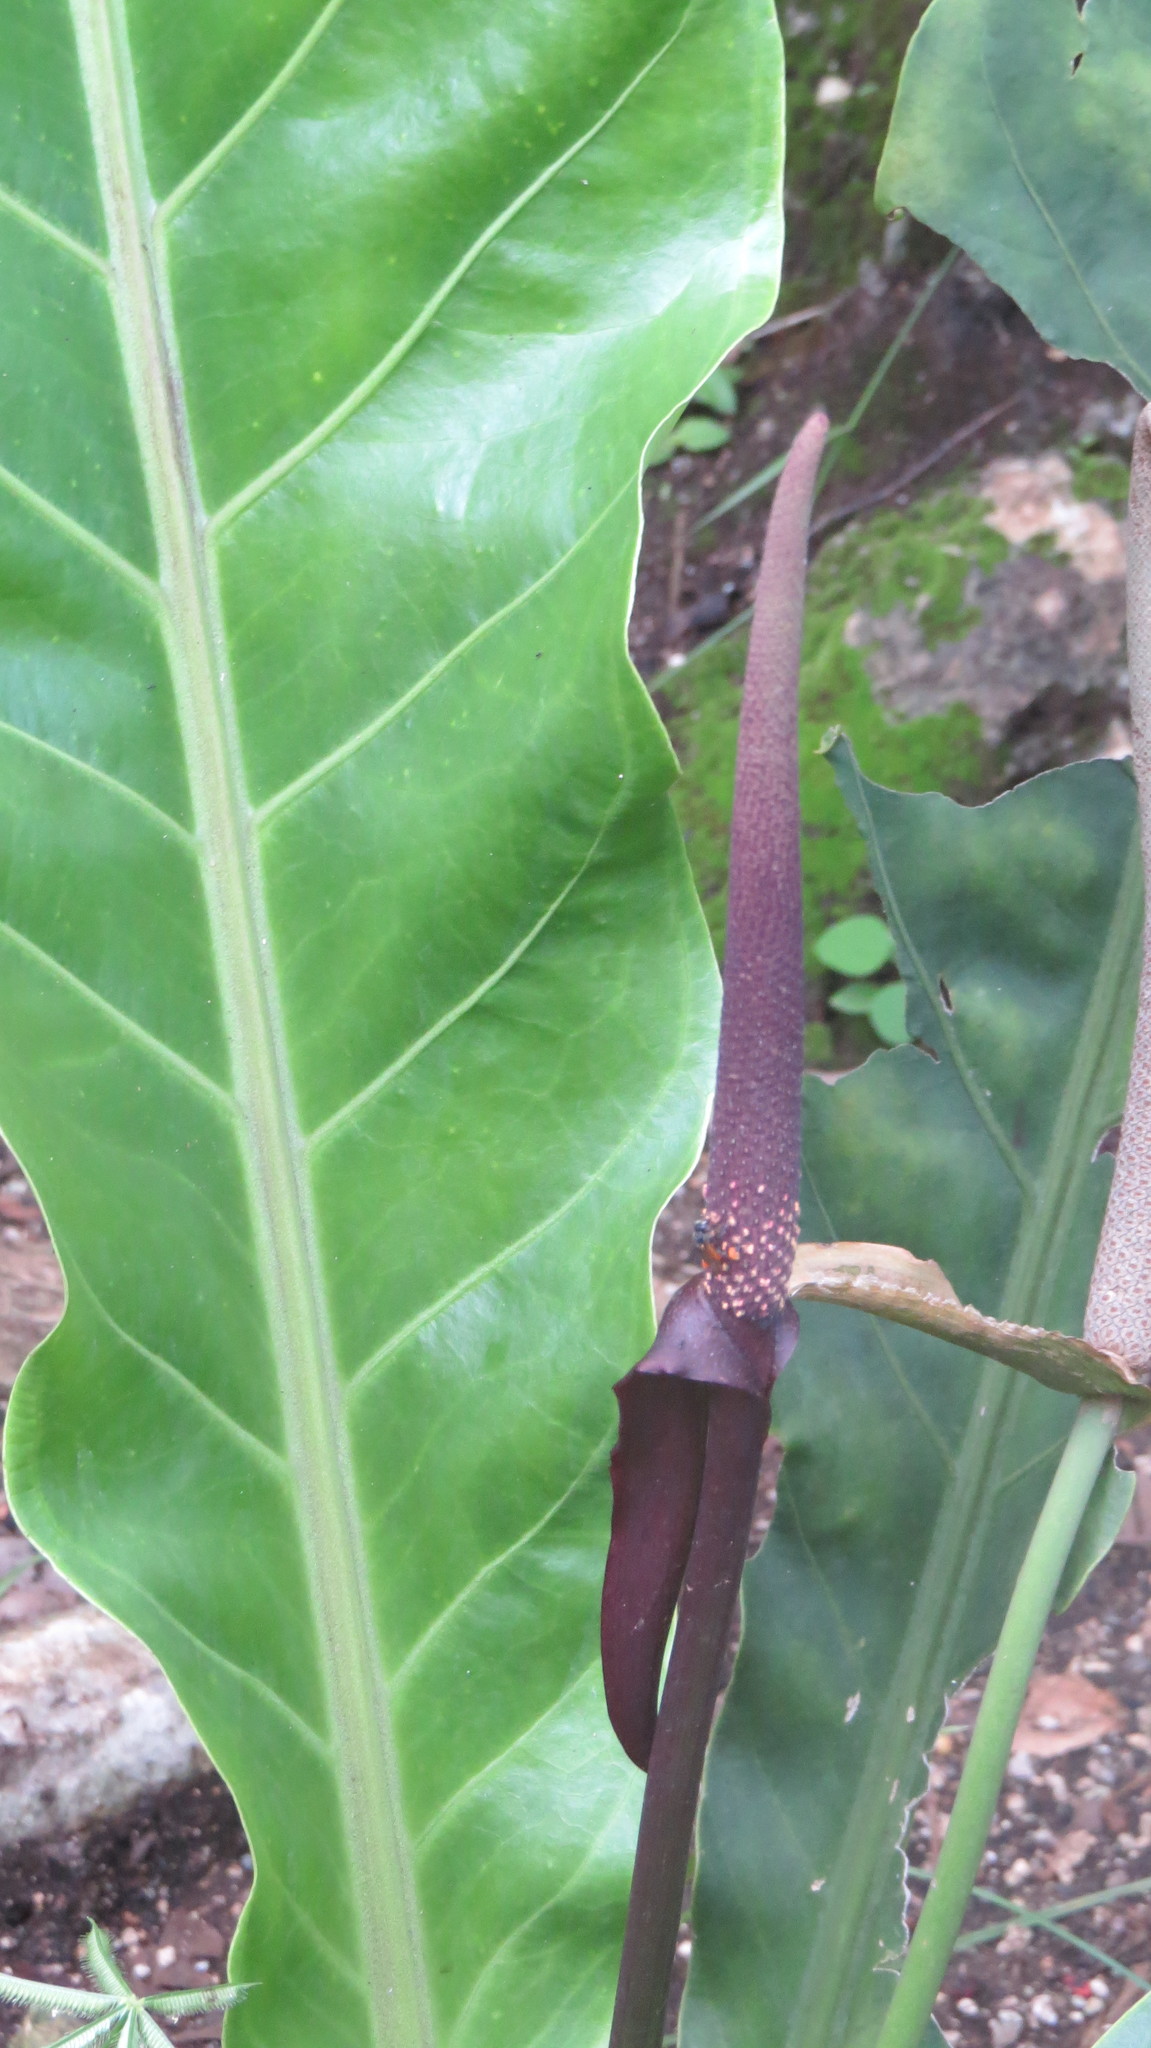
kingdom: Plantae
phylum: Tracheophyta
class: Liliopsida
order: Alismatales
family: Araceae
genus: Anthurium
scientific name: Anthurium schlechtendalii
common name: Laceleaf
